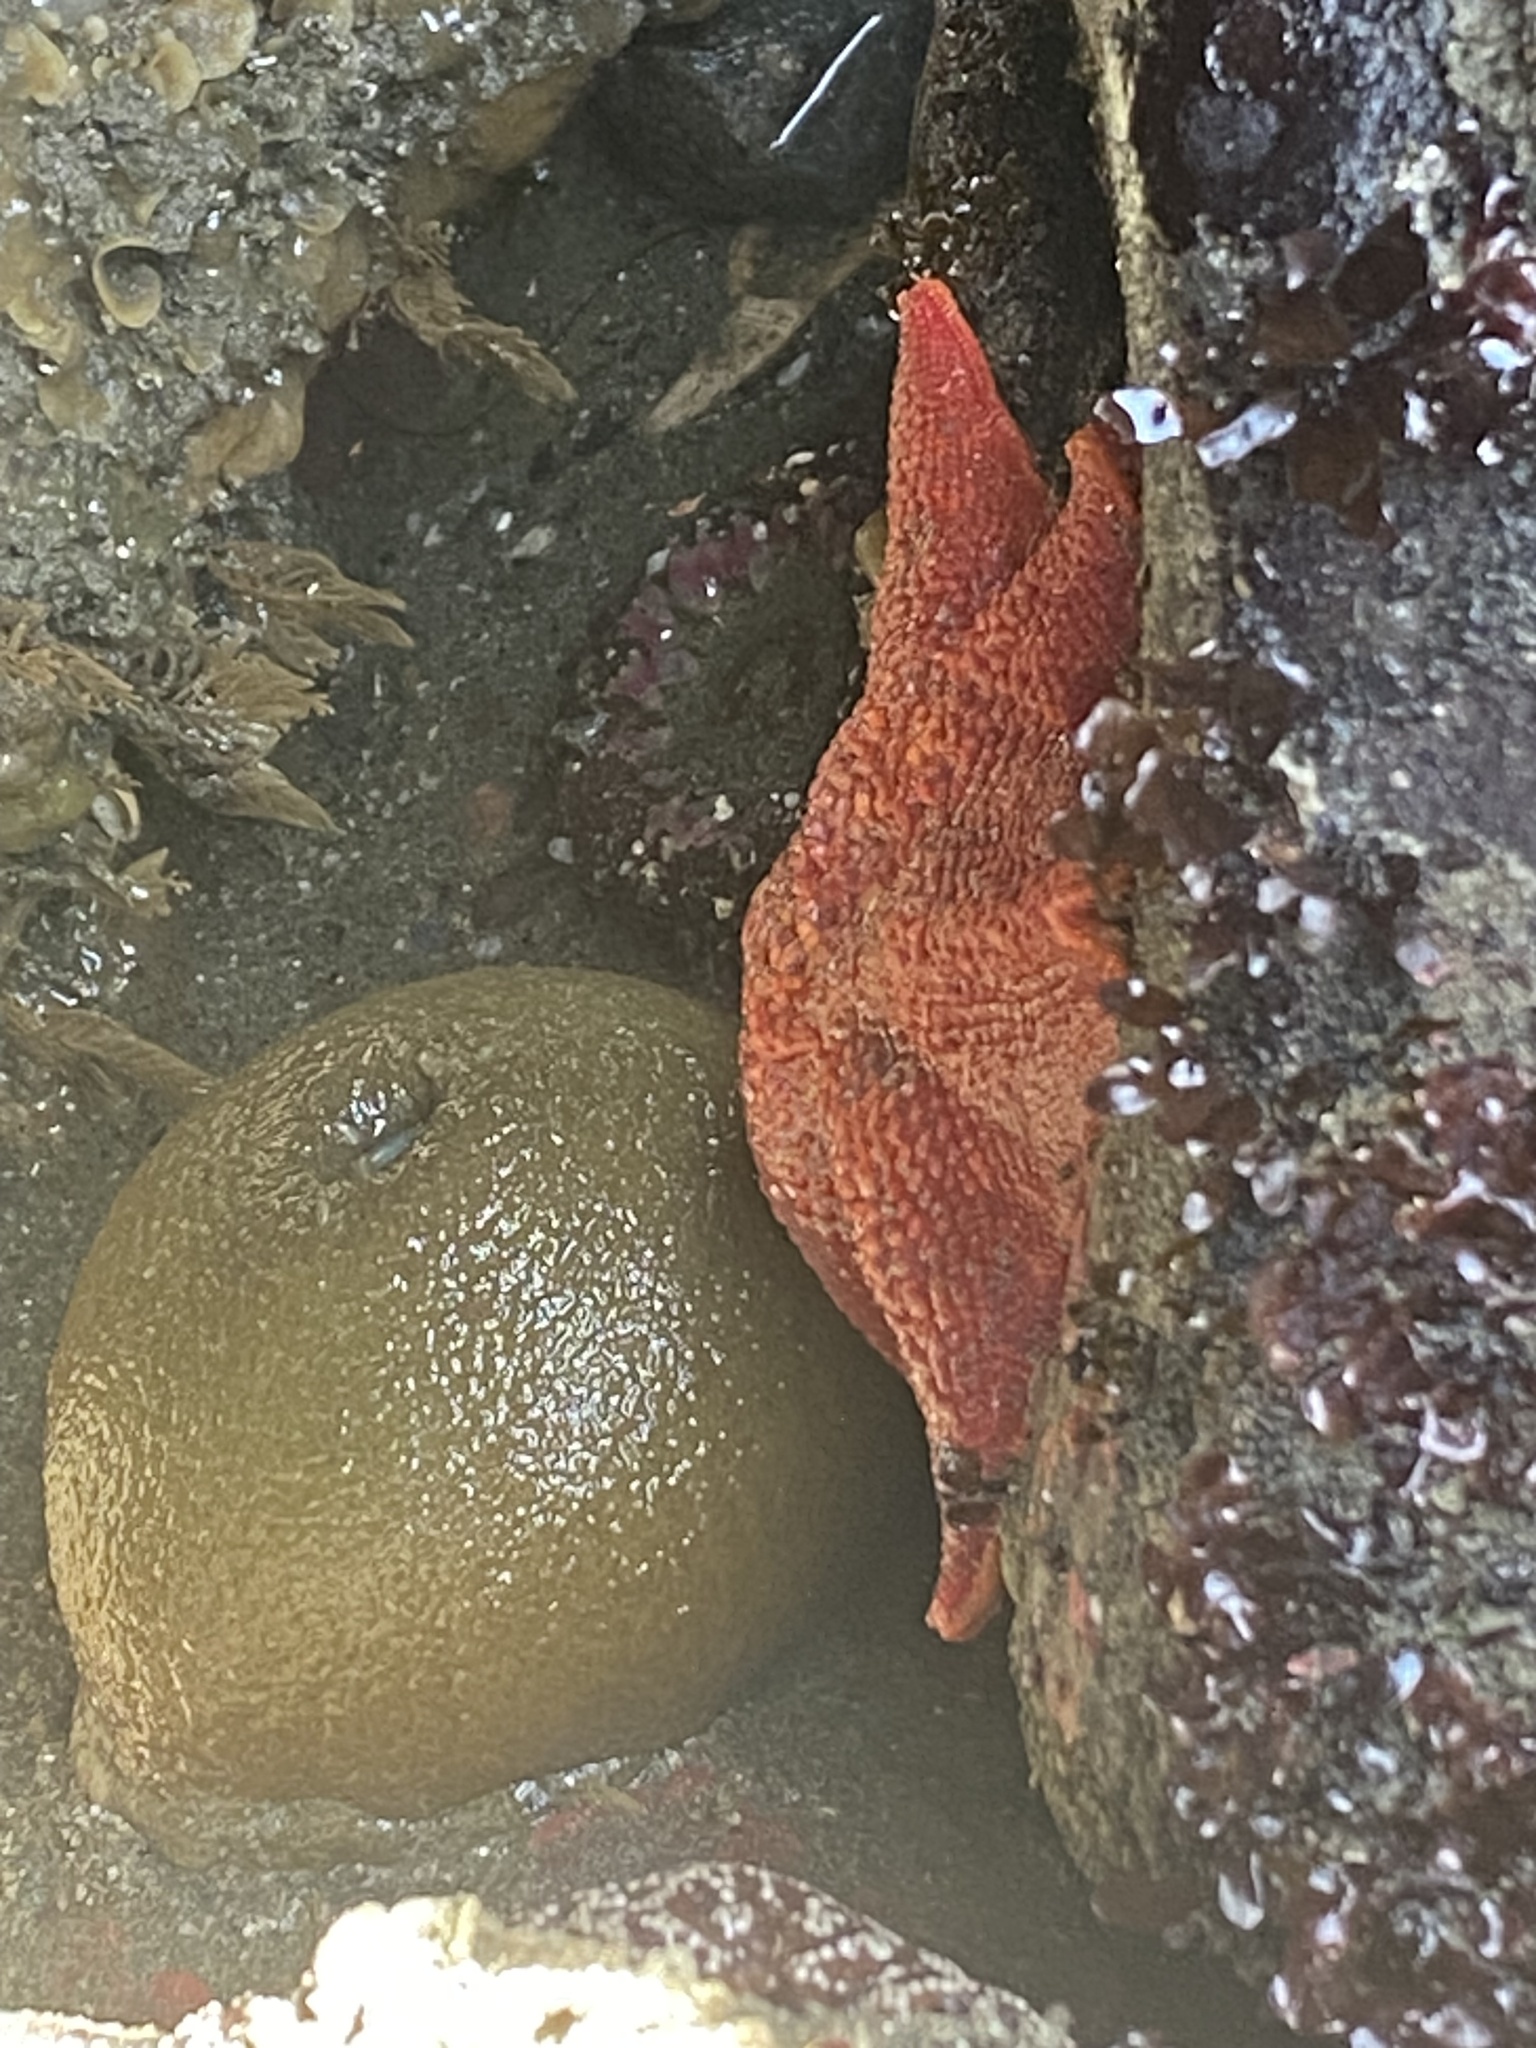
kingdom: Animalia
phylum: Echinodermata
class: Asteroidea
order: Valvatida
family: Asterinidae
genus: Patiria
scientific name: Patiria miniata
